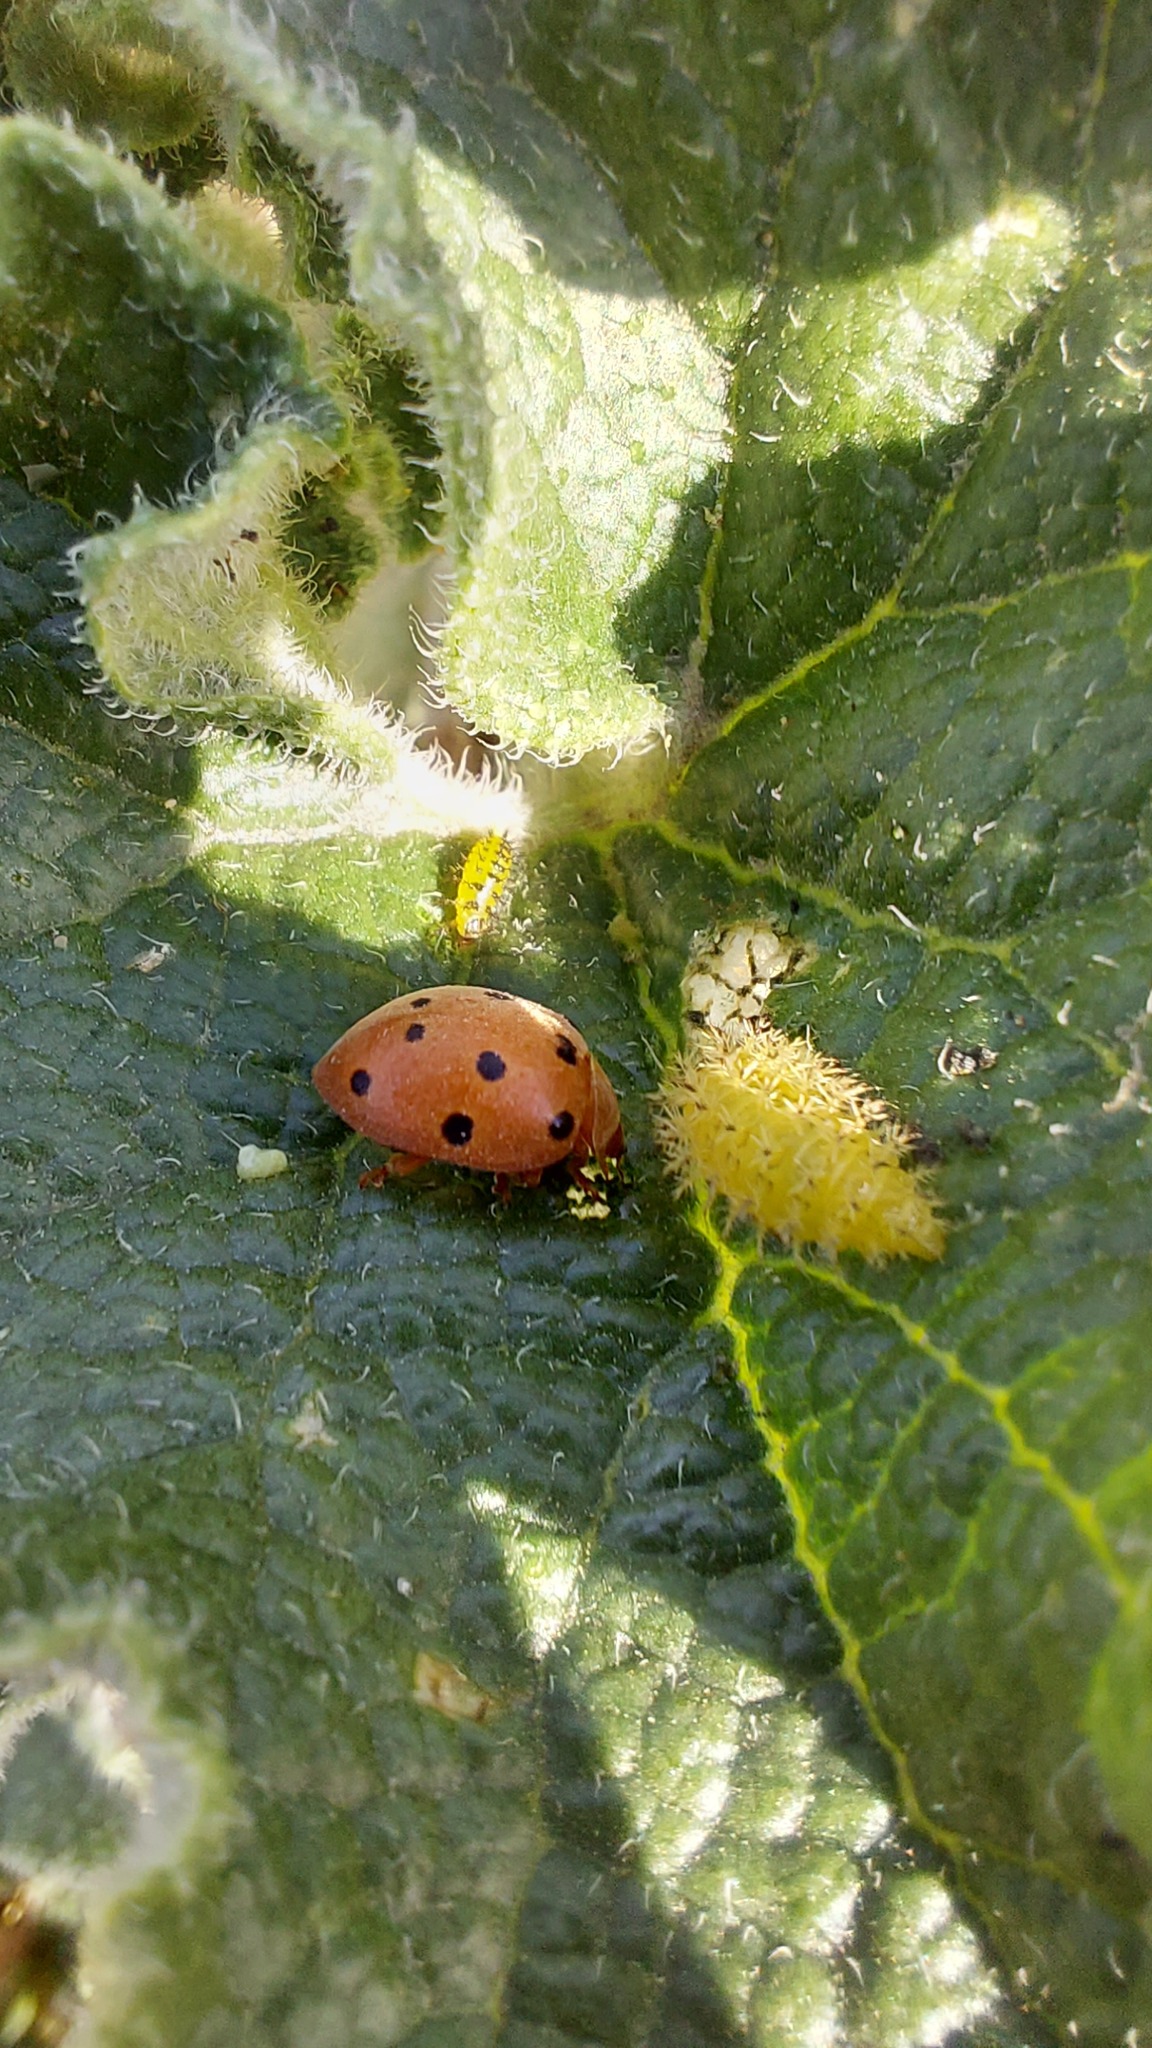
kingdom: Animalia
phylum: Arthropoda
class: Insecta
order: Coleoptera
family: Coccinellidae
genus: Henosepilachna
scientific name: Henosepilachna argus
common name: Bryony ladybird
